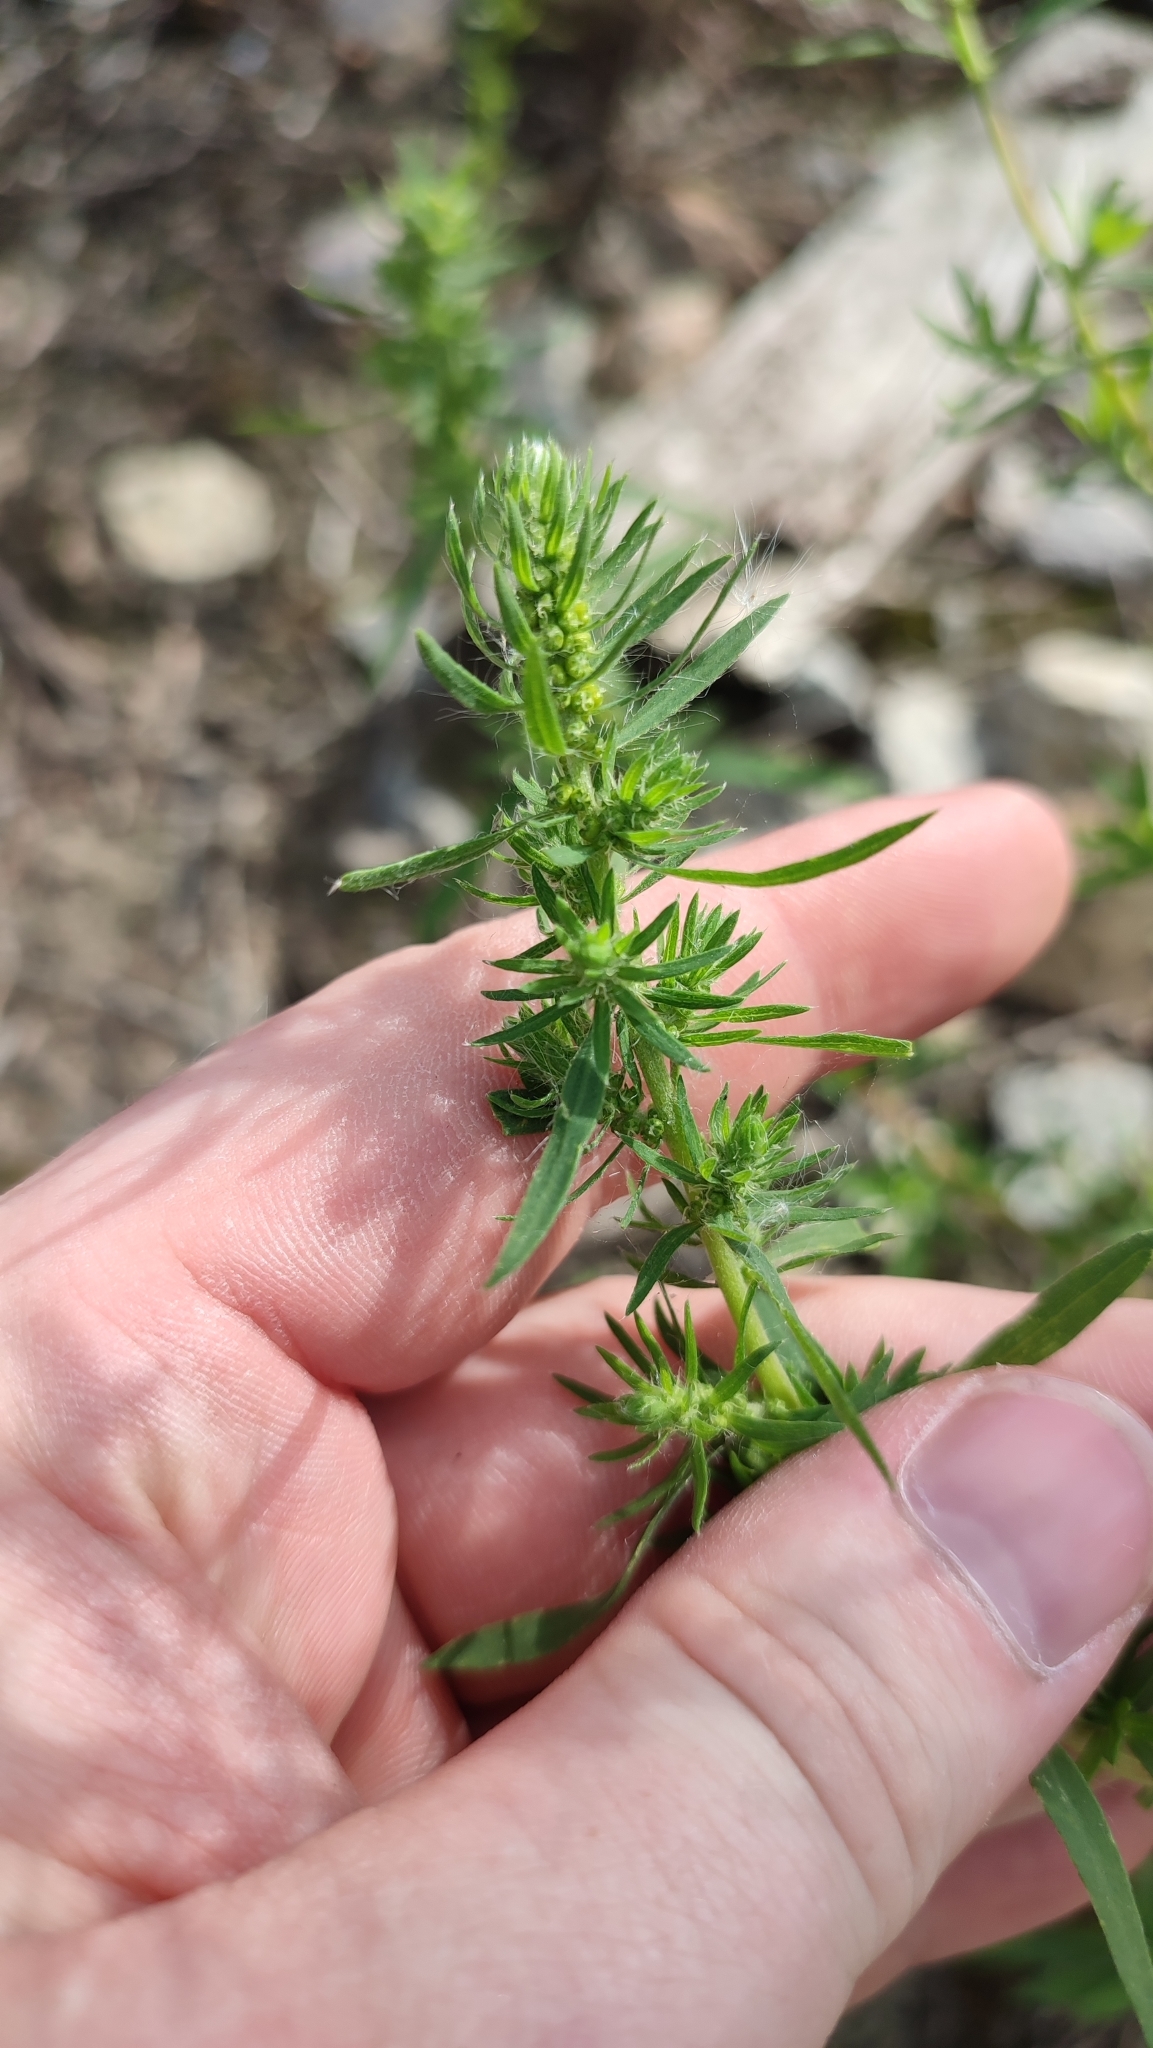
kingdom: Plantae
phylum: Tracheophyta
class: Magnoliopsida
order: Caryophyllales
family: Amaranthaceae
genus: Bassia
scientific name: Bassia scoparia
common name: Belvedere
